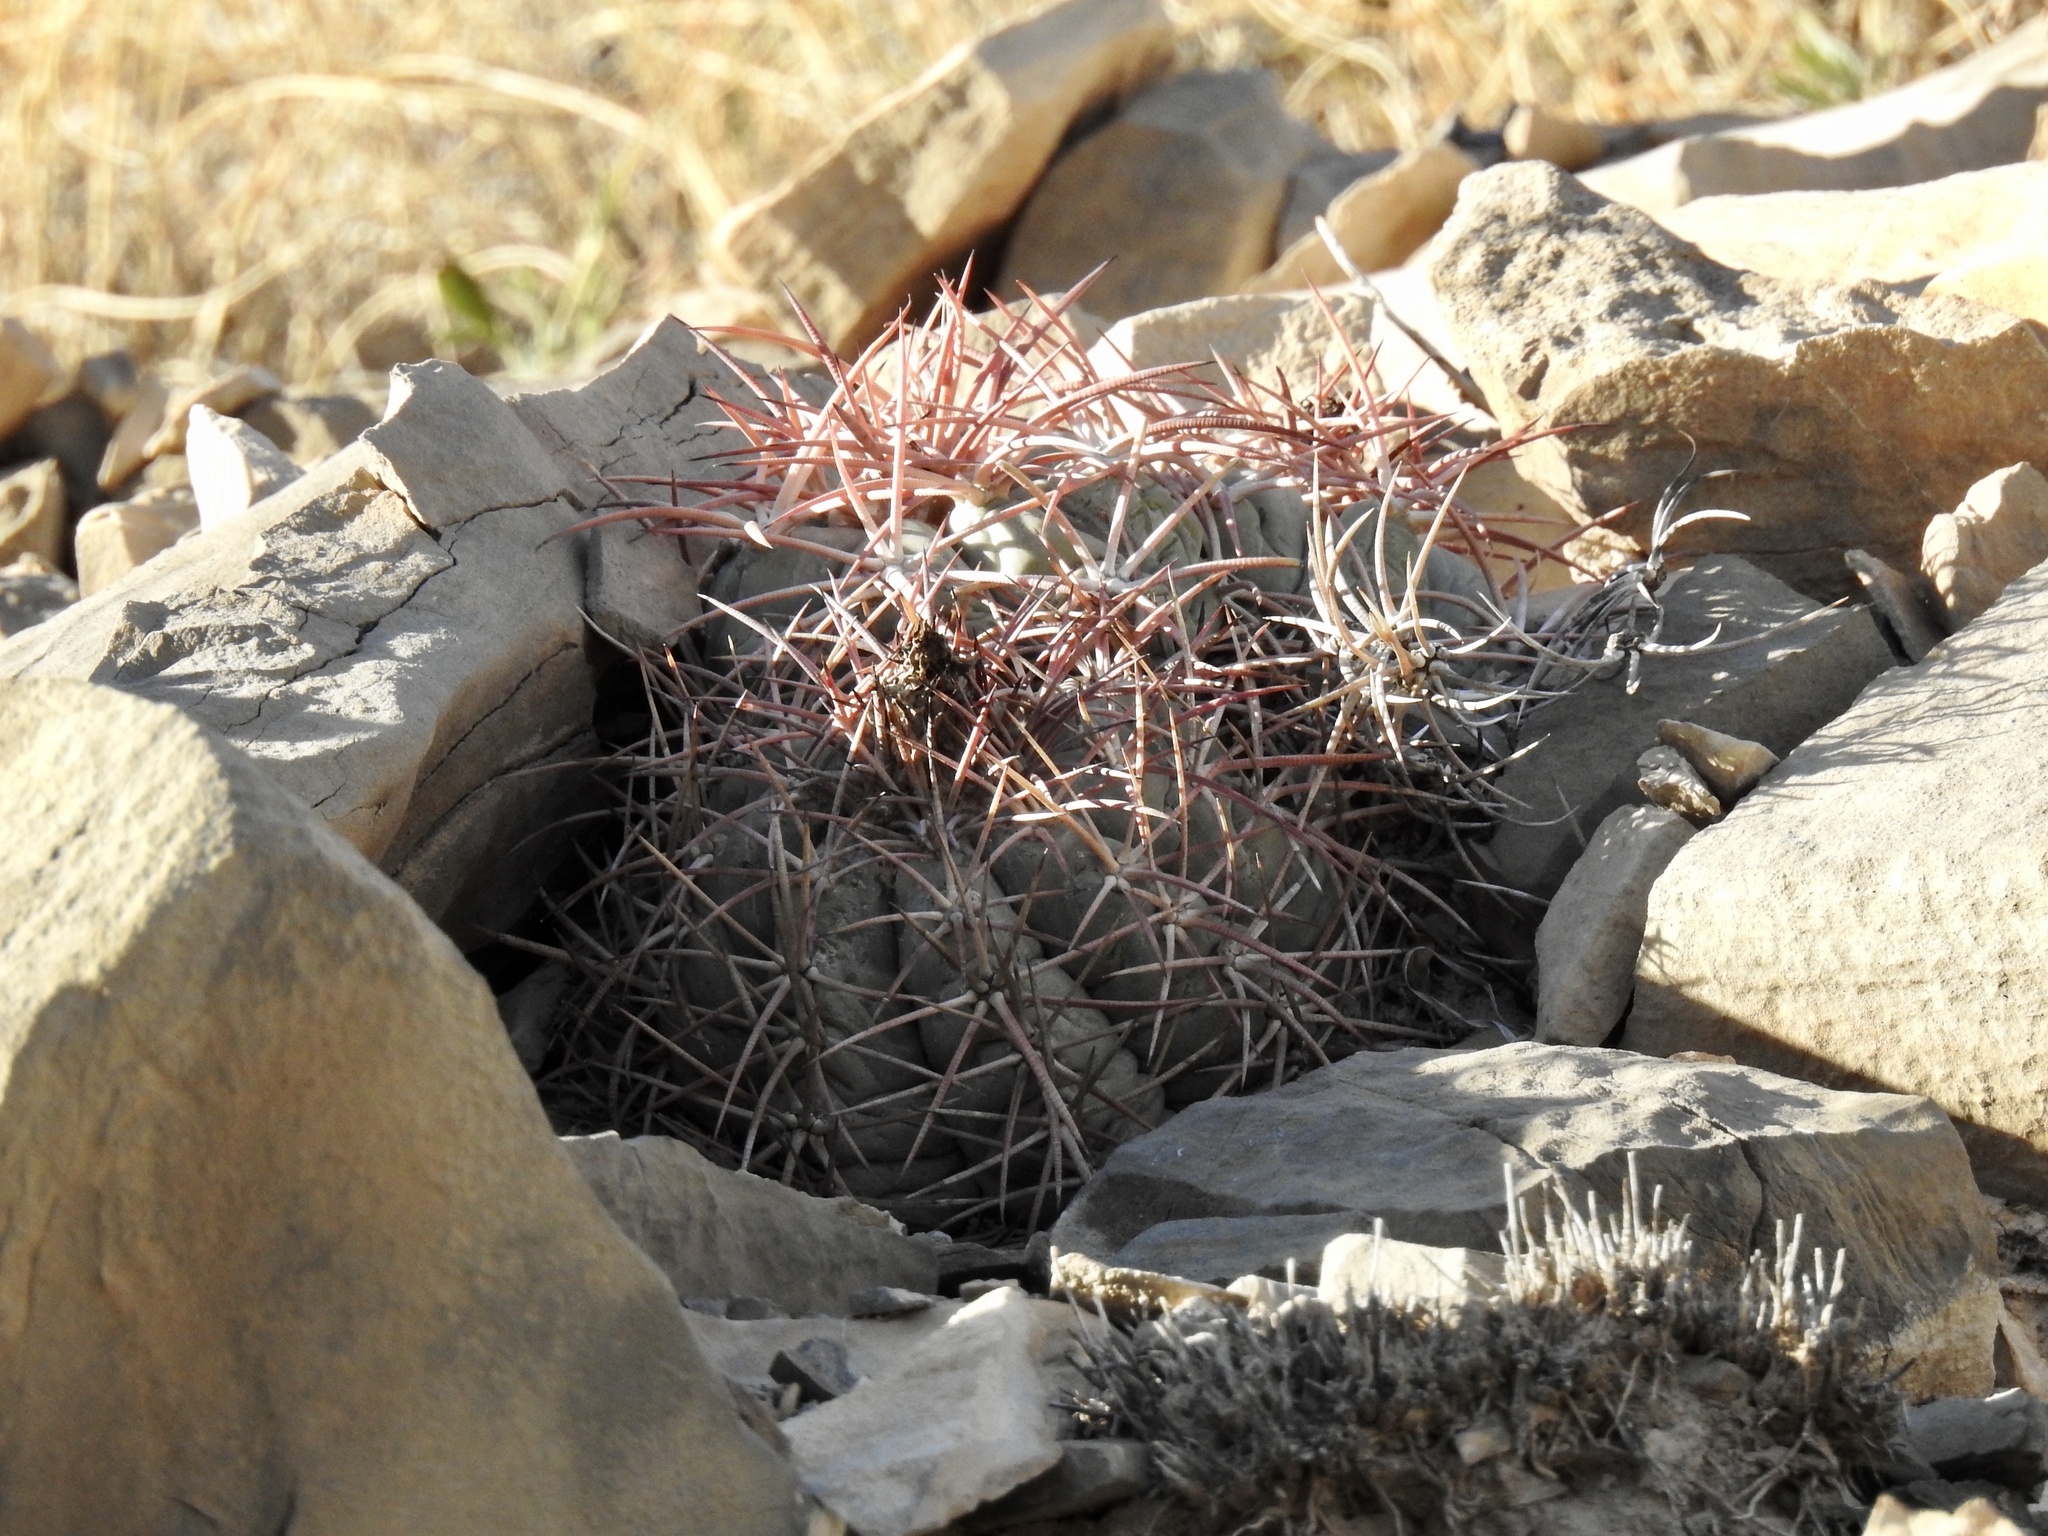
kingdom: Plantae
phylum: Tracheophyta
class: Magnoliopsida
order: Caryophyllales
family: Cactaceae
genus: Echinocactus
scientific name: Echinocactus horizonthalonius
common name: Devilshead
